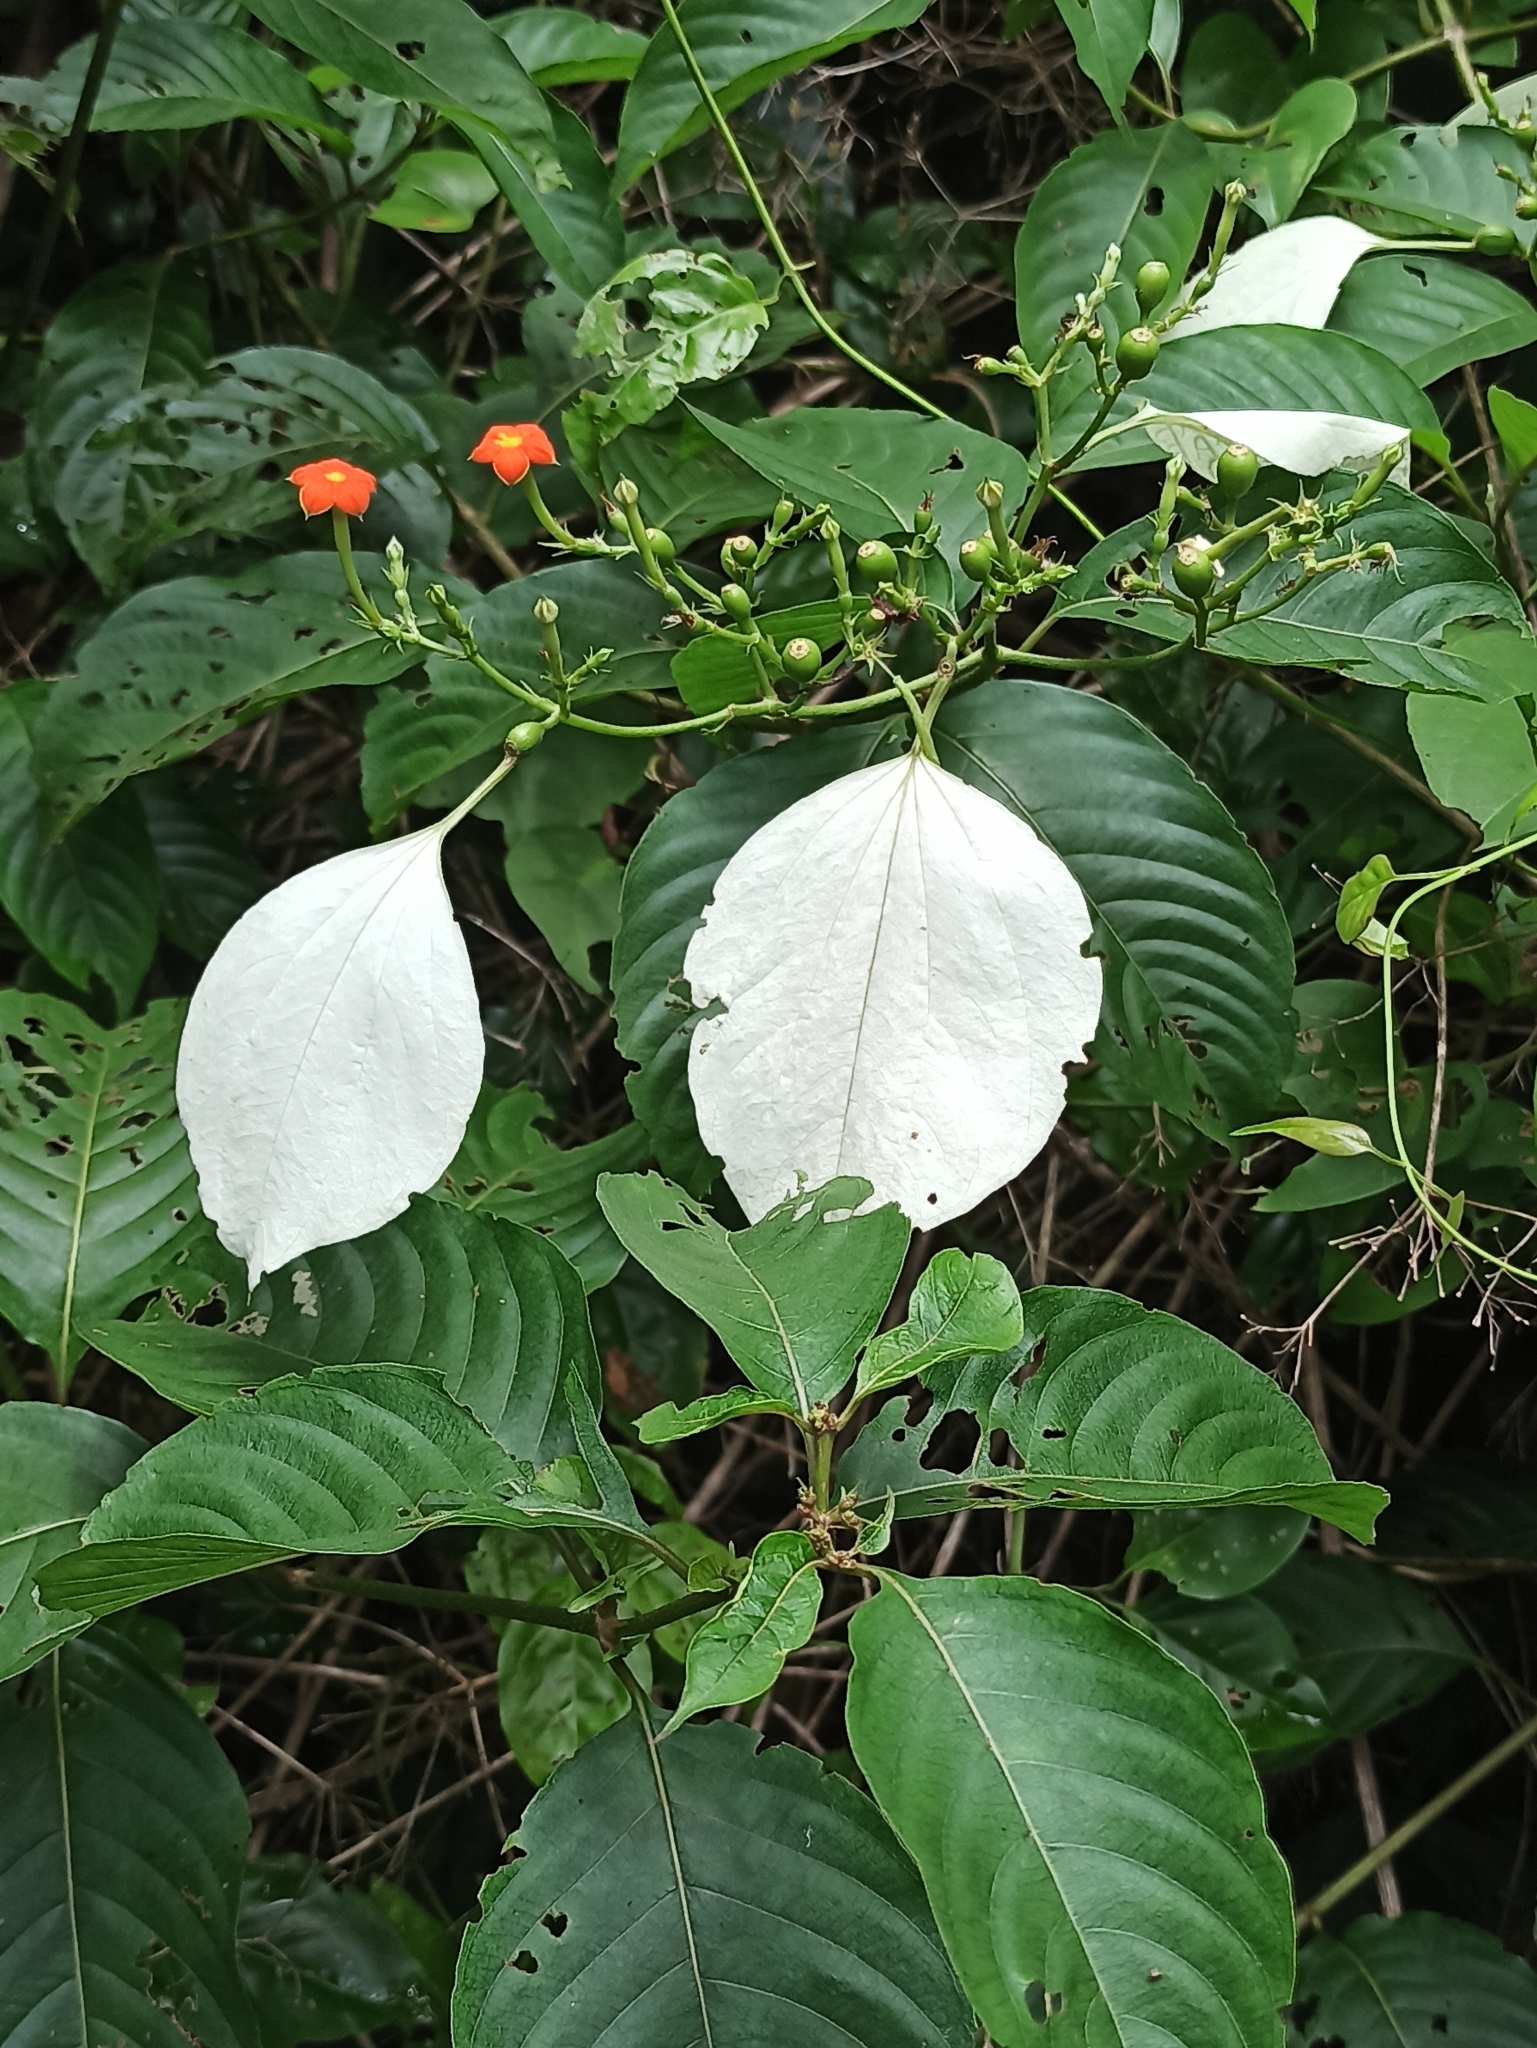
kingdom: Plantae
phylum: Tracheophyta
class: Magnoliopsida
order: Gentianales
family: Rubiaceae
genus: Mussaenda
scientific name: Mussaenda frondosa
